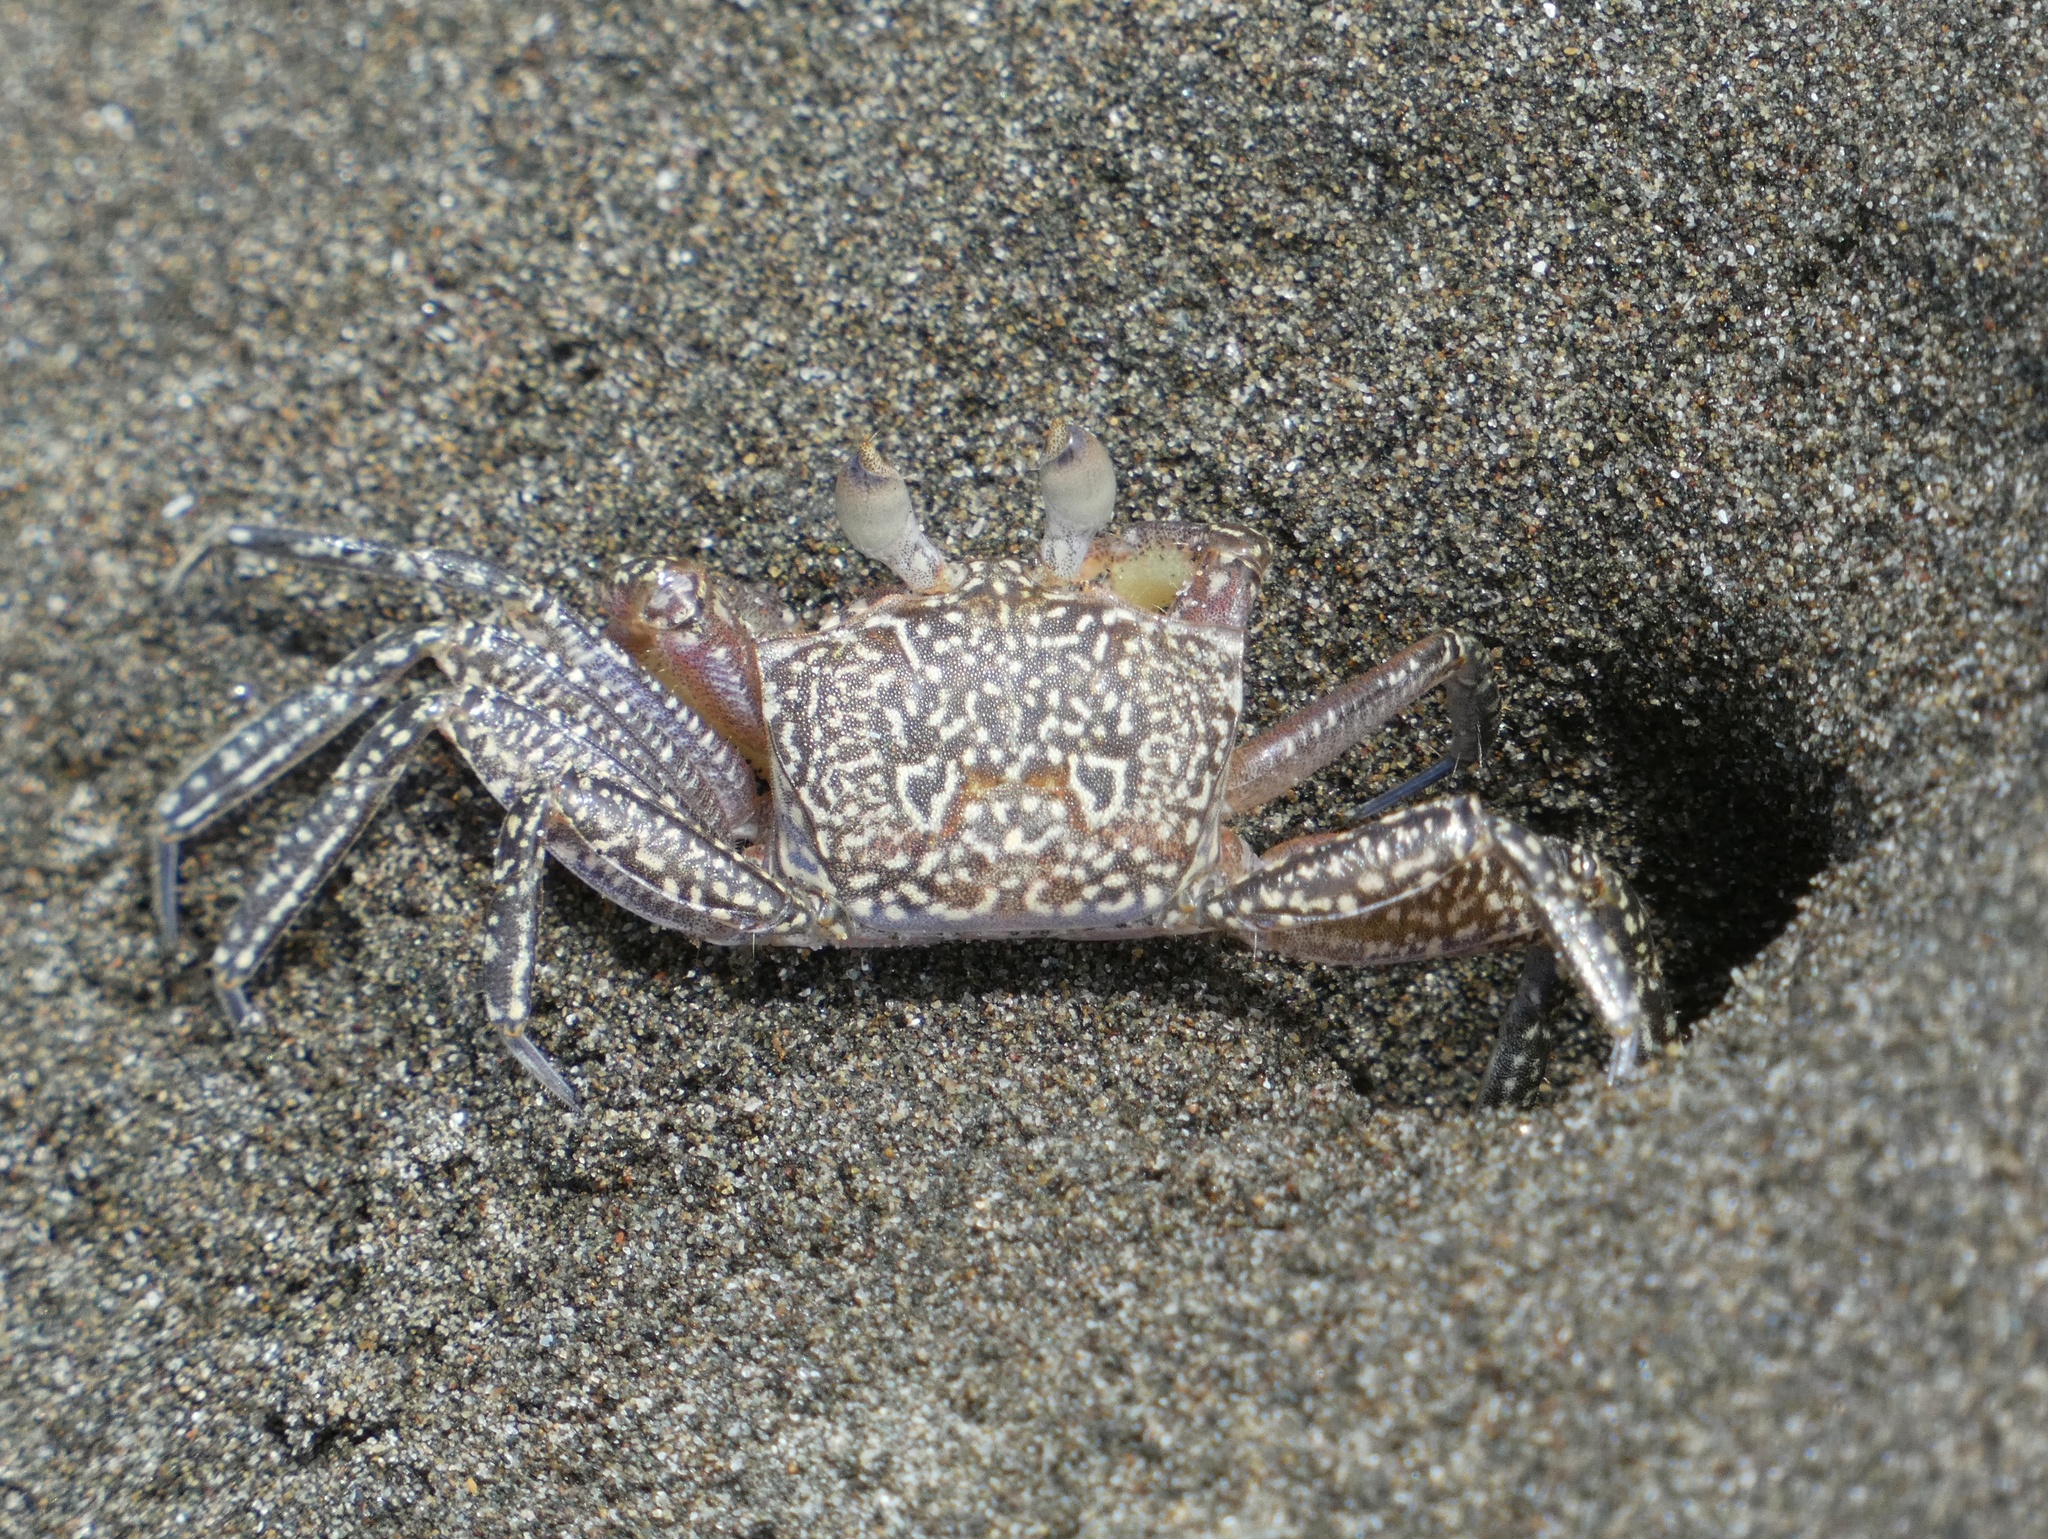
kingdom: Animalia
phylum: Arthropoda
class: Malacostraca
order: Decapoda
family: Ocypodidae
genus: Ocypode
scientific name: Ocypode gaudichaudii
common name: Pacific ghost crab
